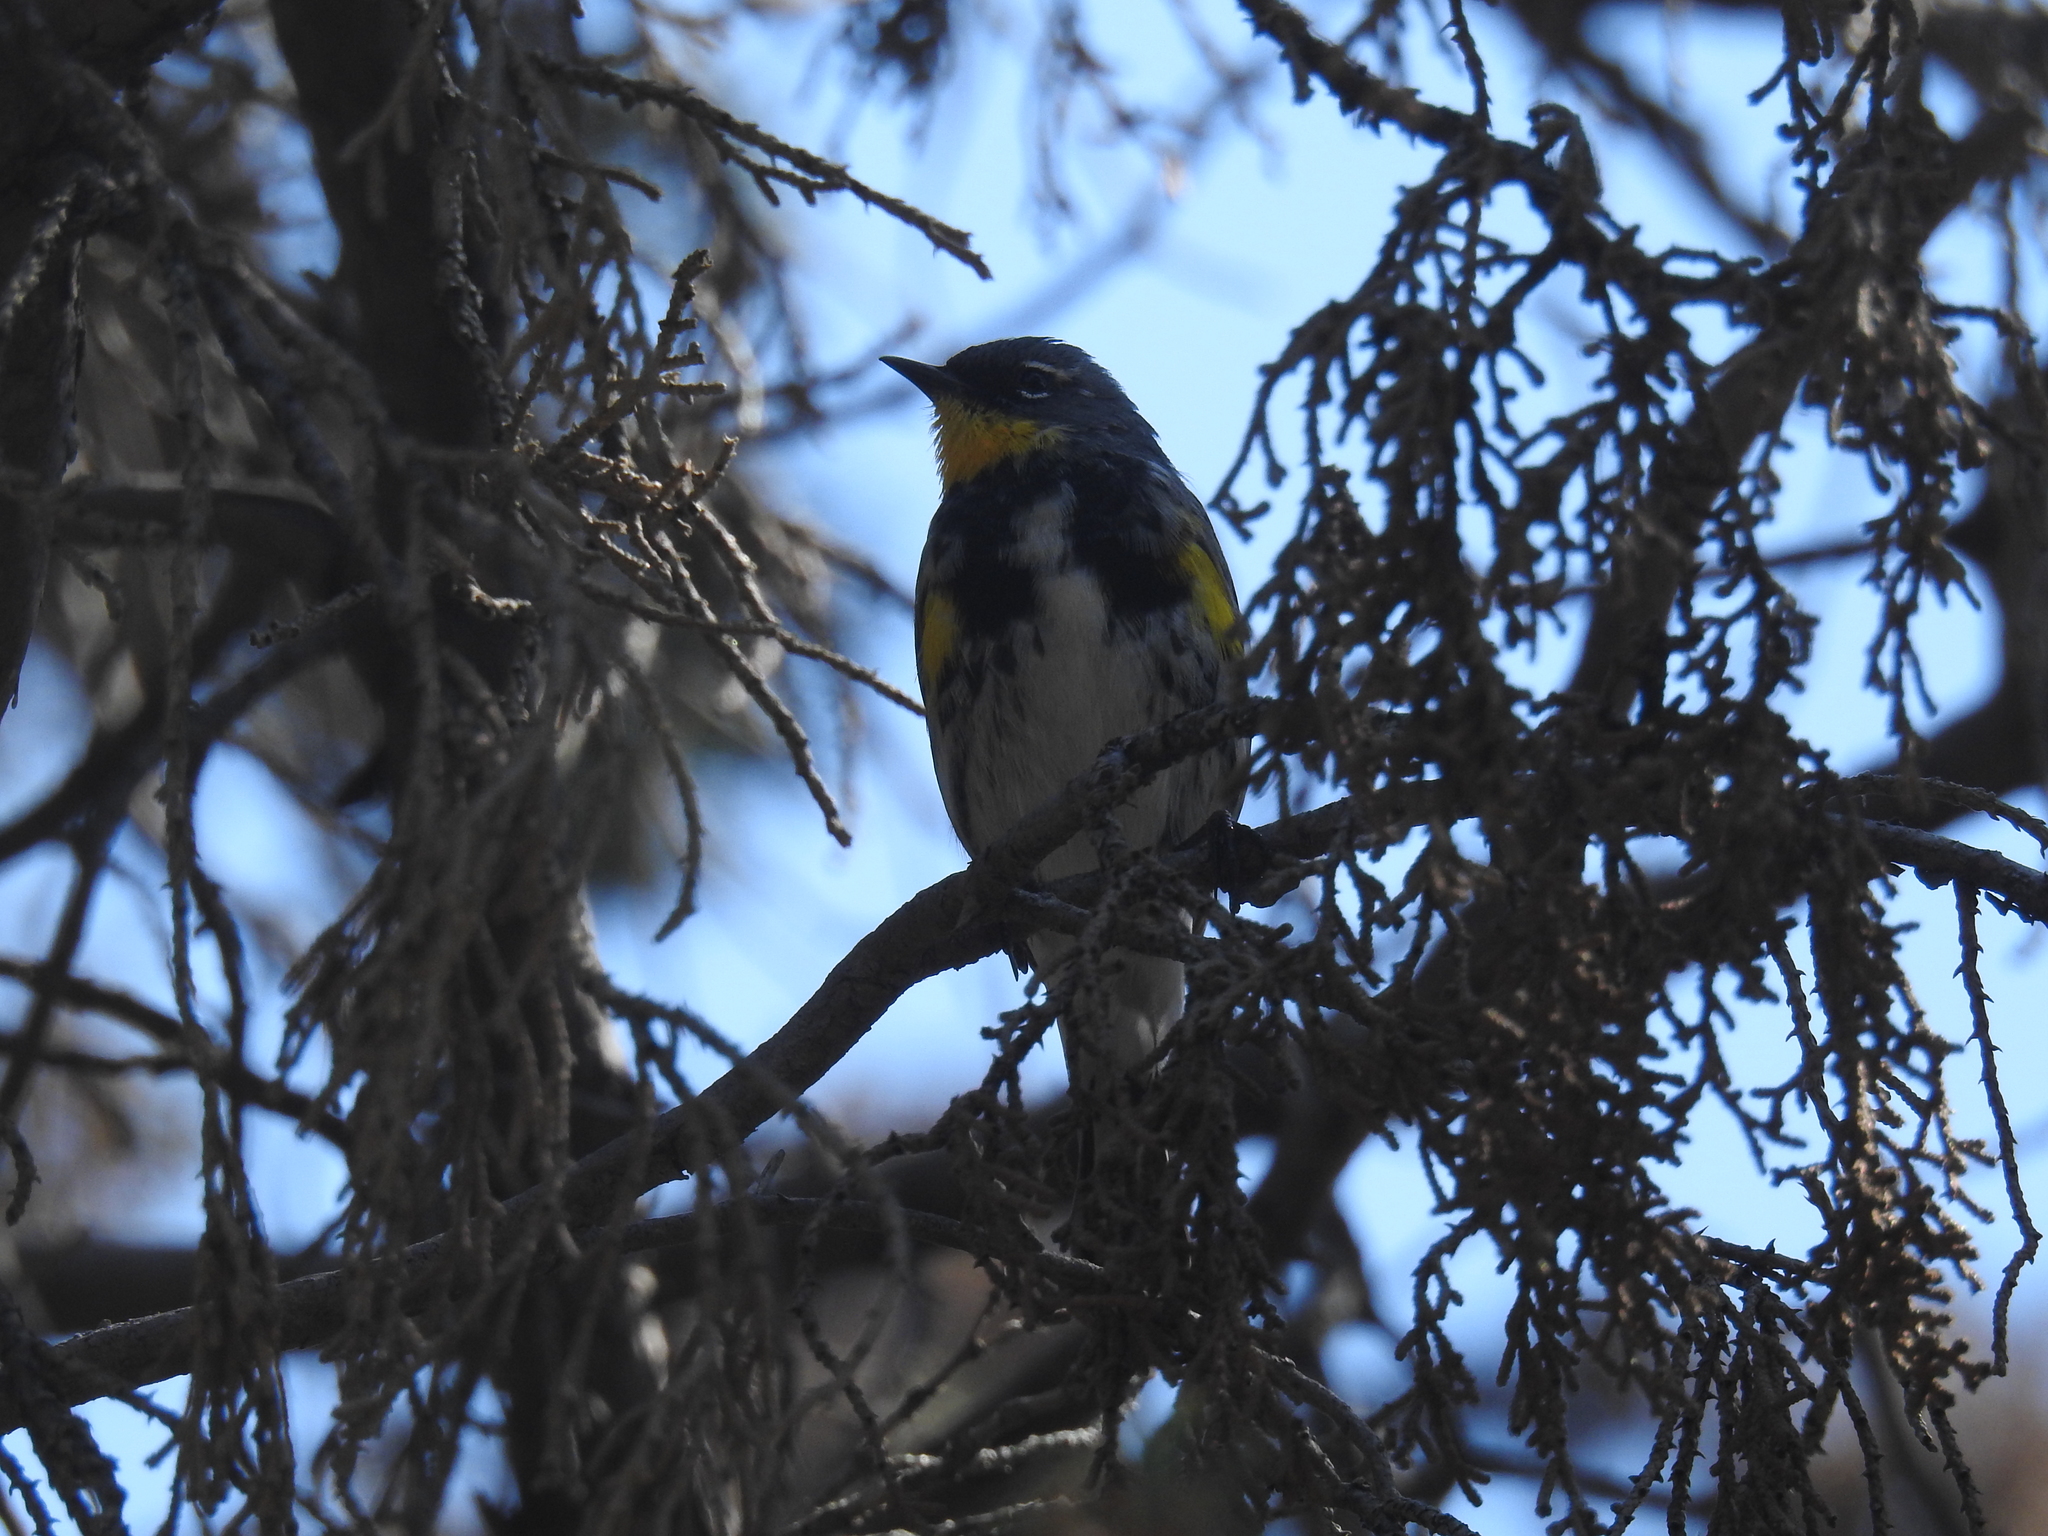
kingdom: Animalia
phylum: Chordata
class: Aves
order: Passeriformes
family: Parulidae
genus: Setophaga
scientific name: Setophaga coronata
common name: Myrtle warbler
